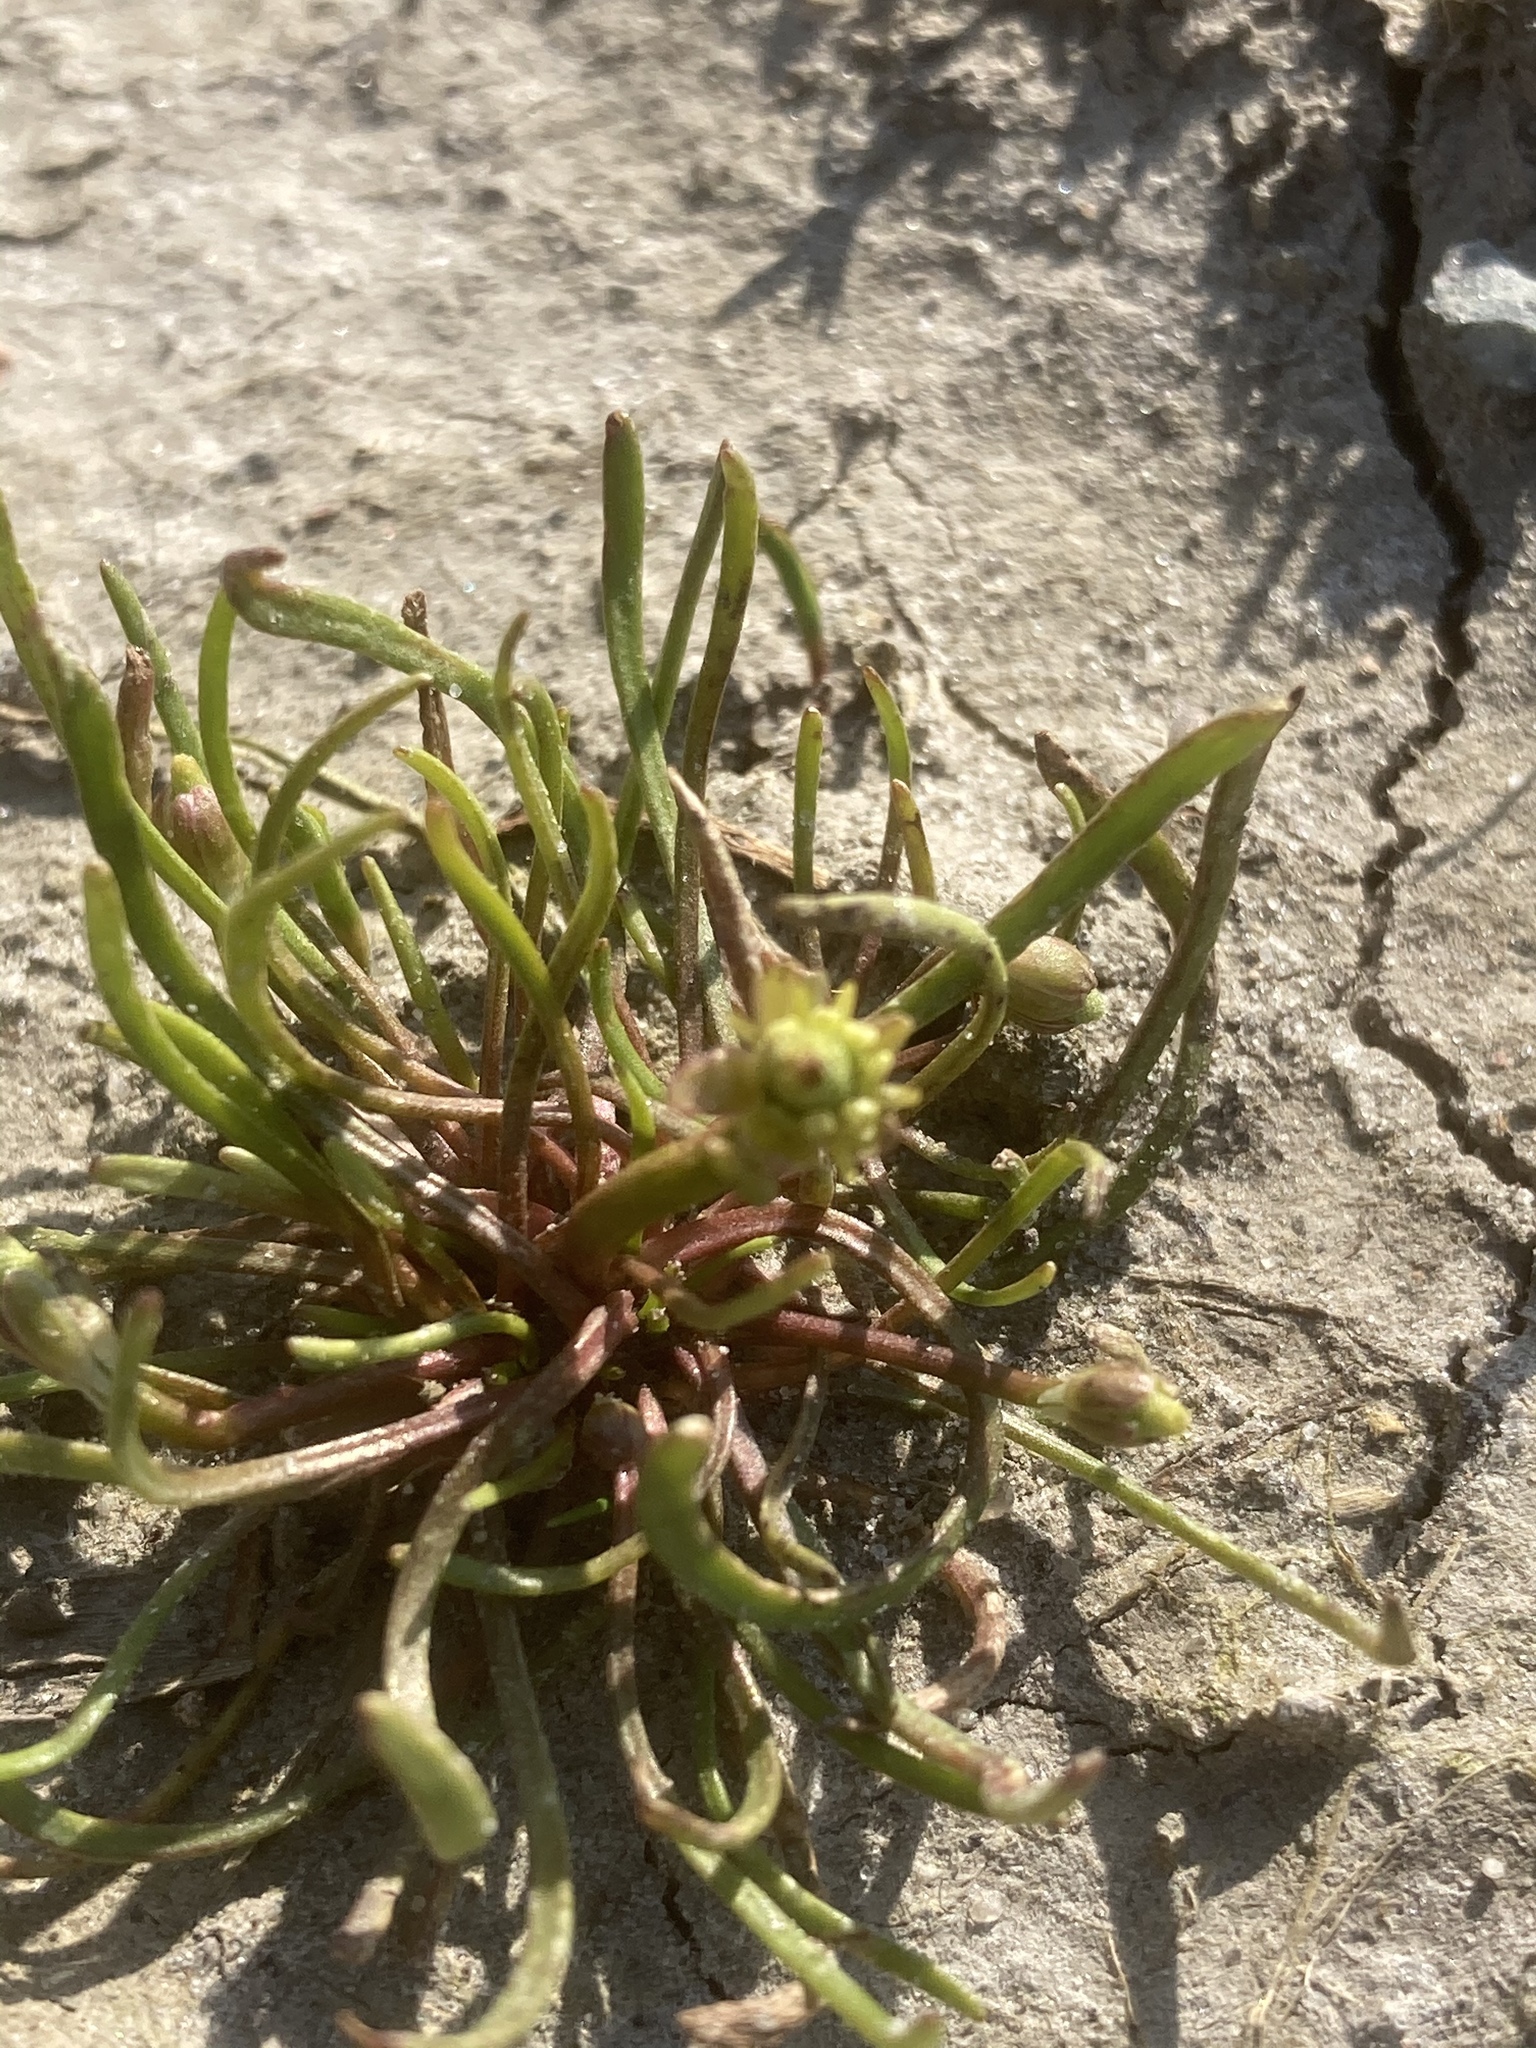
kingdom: Plantae
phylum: Tracheophyta
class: Magnoliopsida
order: Ranunculales
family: Ranunculaceae
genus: Myosurus
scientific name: Myosurus minimus
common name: Mousetail
